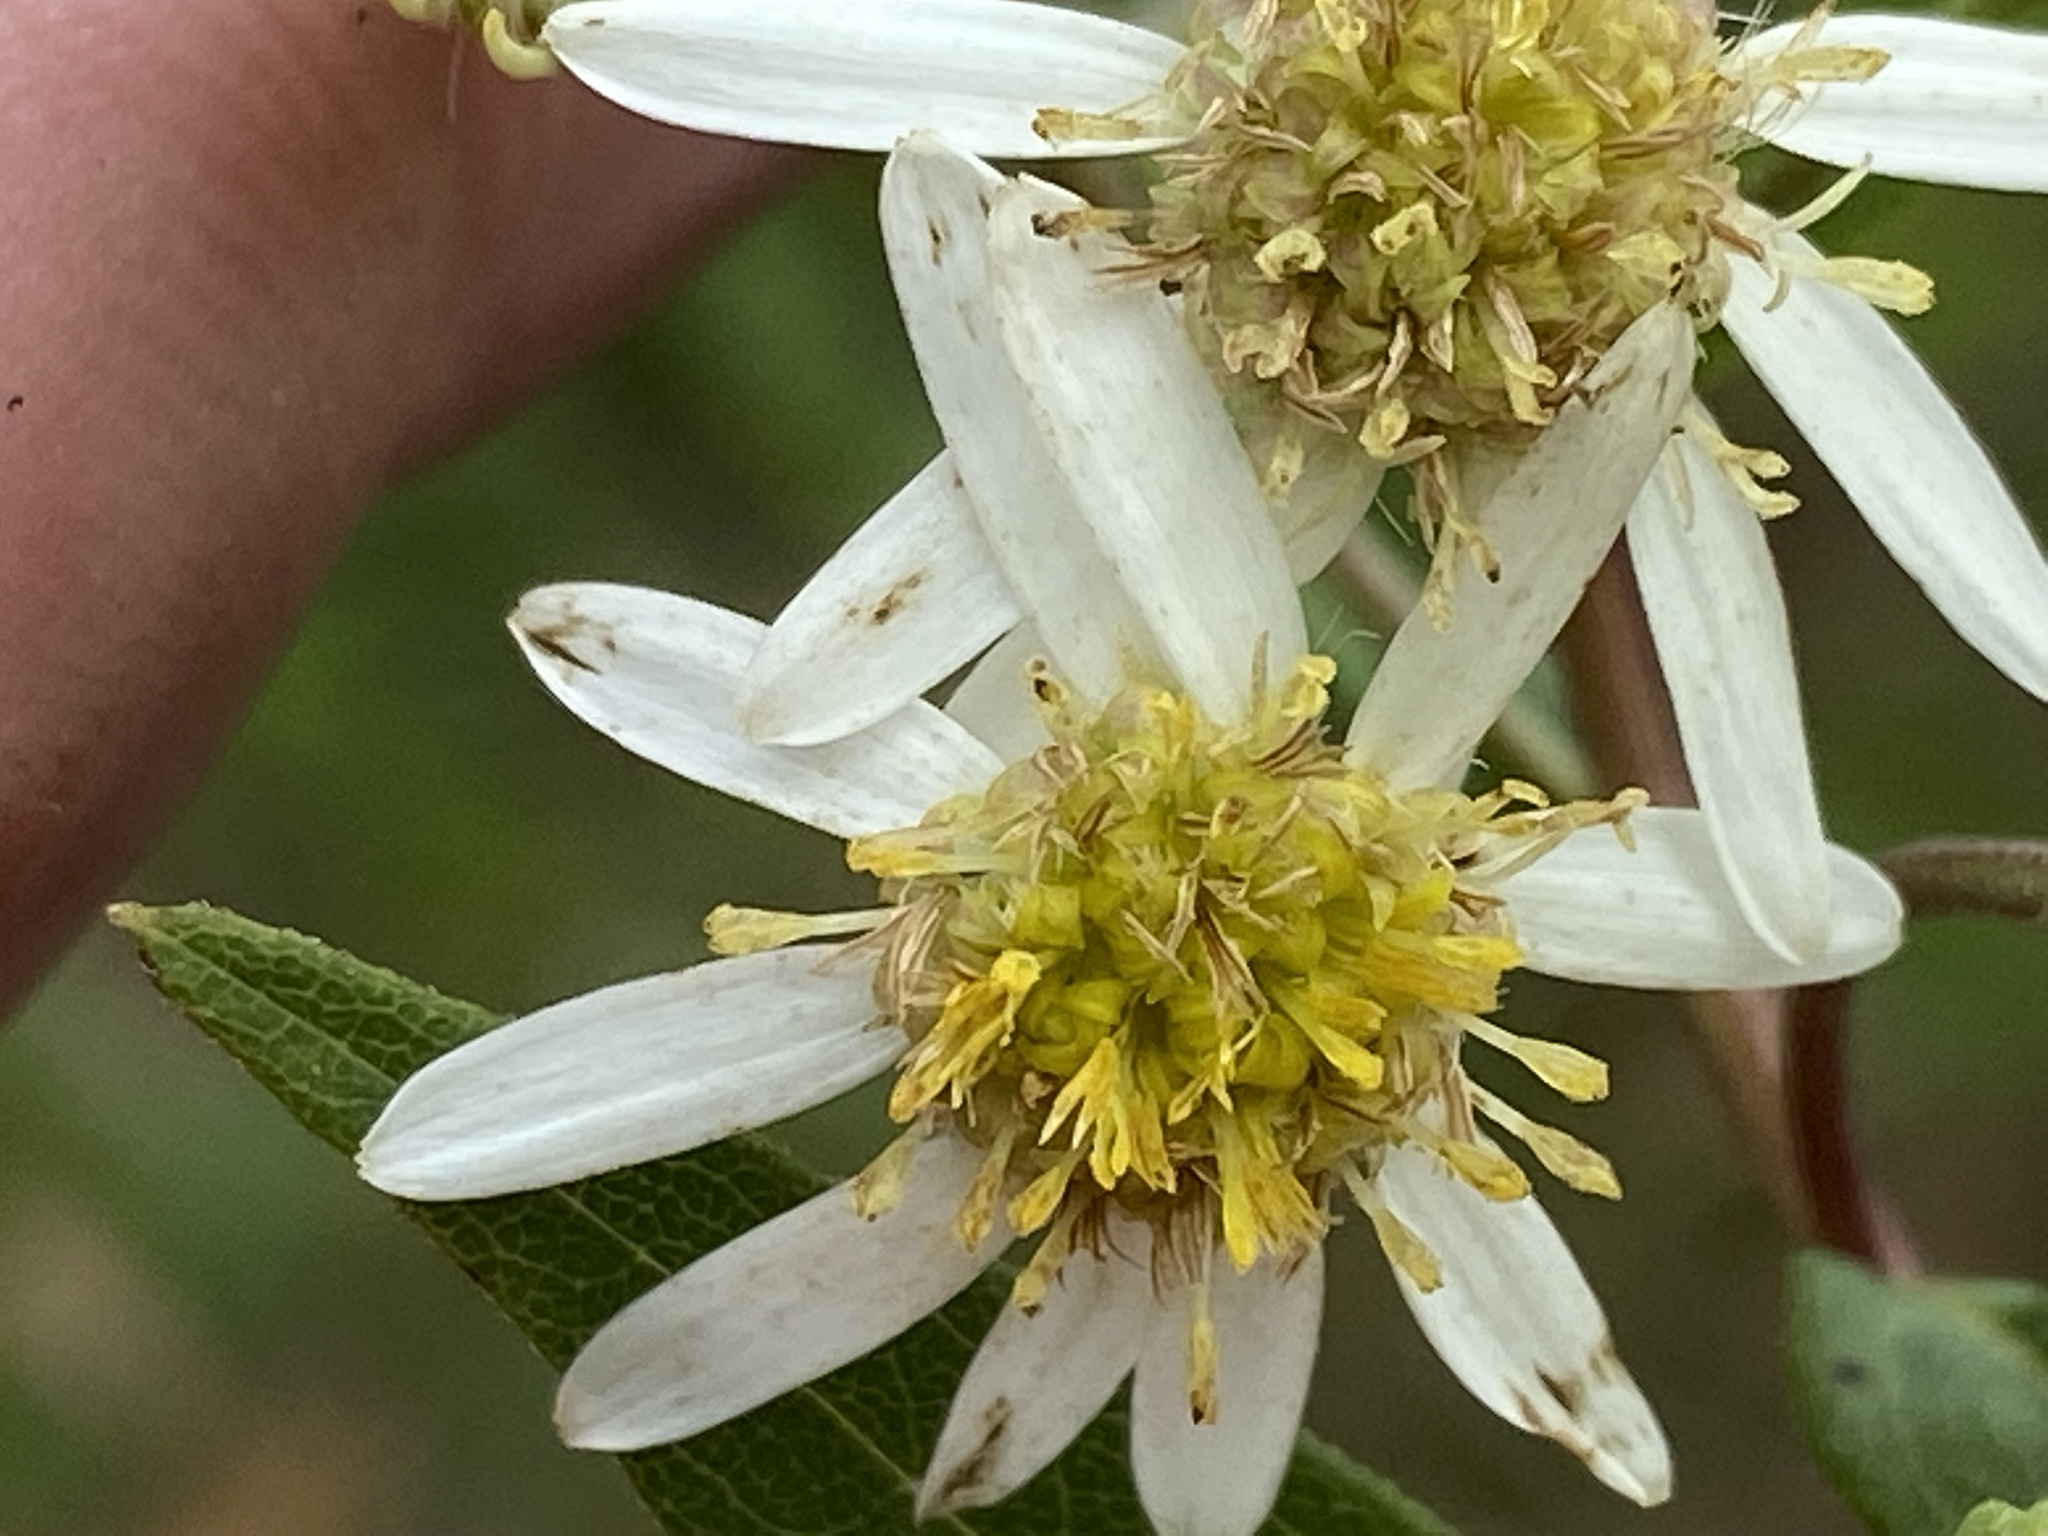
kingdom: Plantae
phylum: Tracheophyta
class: Magnoliopsida
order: Asterales
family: Asteraceae
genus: Doellingeria
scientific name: Doellingeria umbellata
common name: Flat-top white aster
